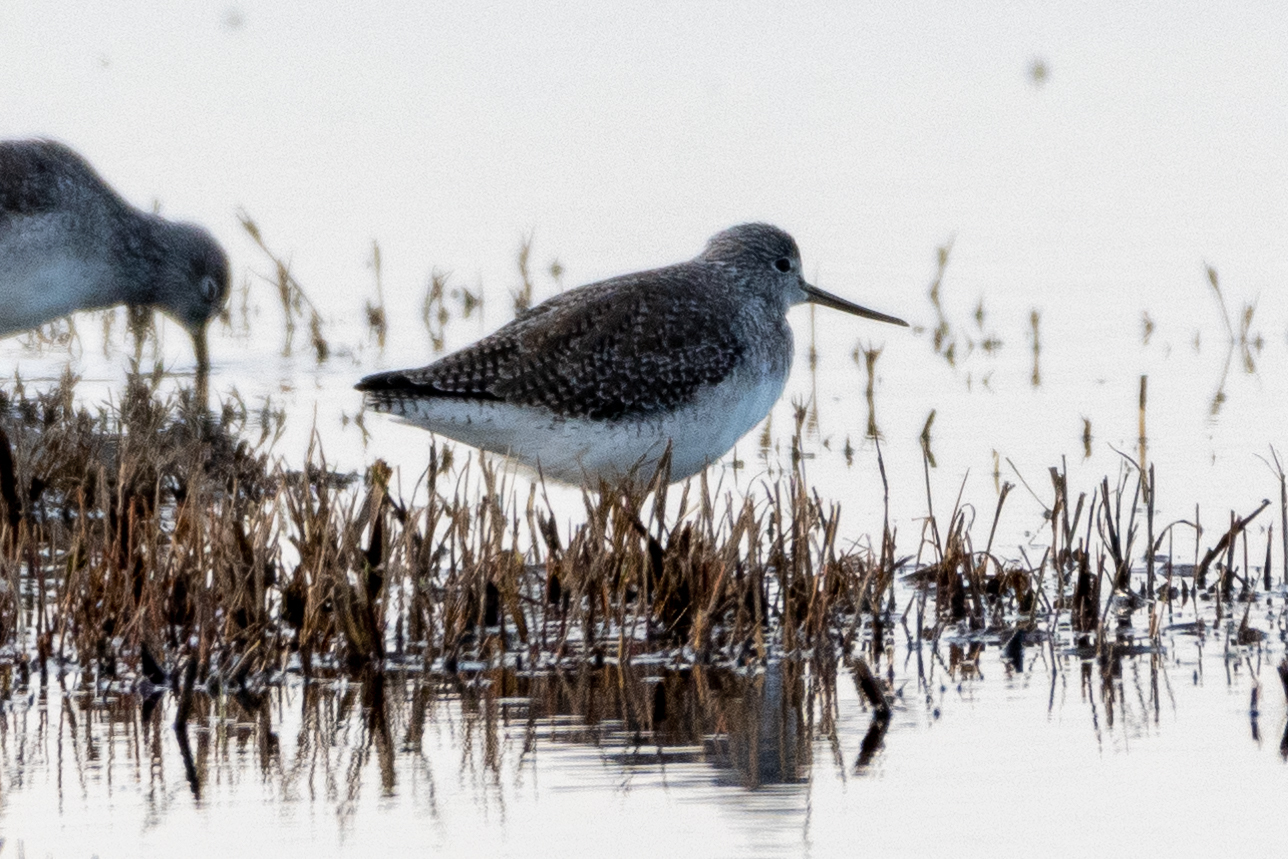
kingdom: Animalia
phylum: Chordata
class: Aves
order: Charadriiformes
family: Scolopacidae
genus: Tringa
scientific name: Tringa melanoleuca
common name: Greater yellowlegs
